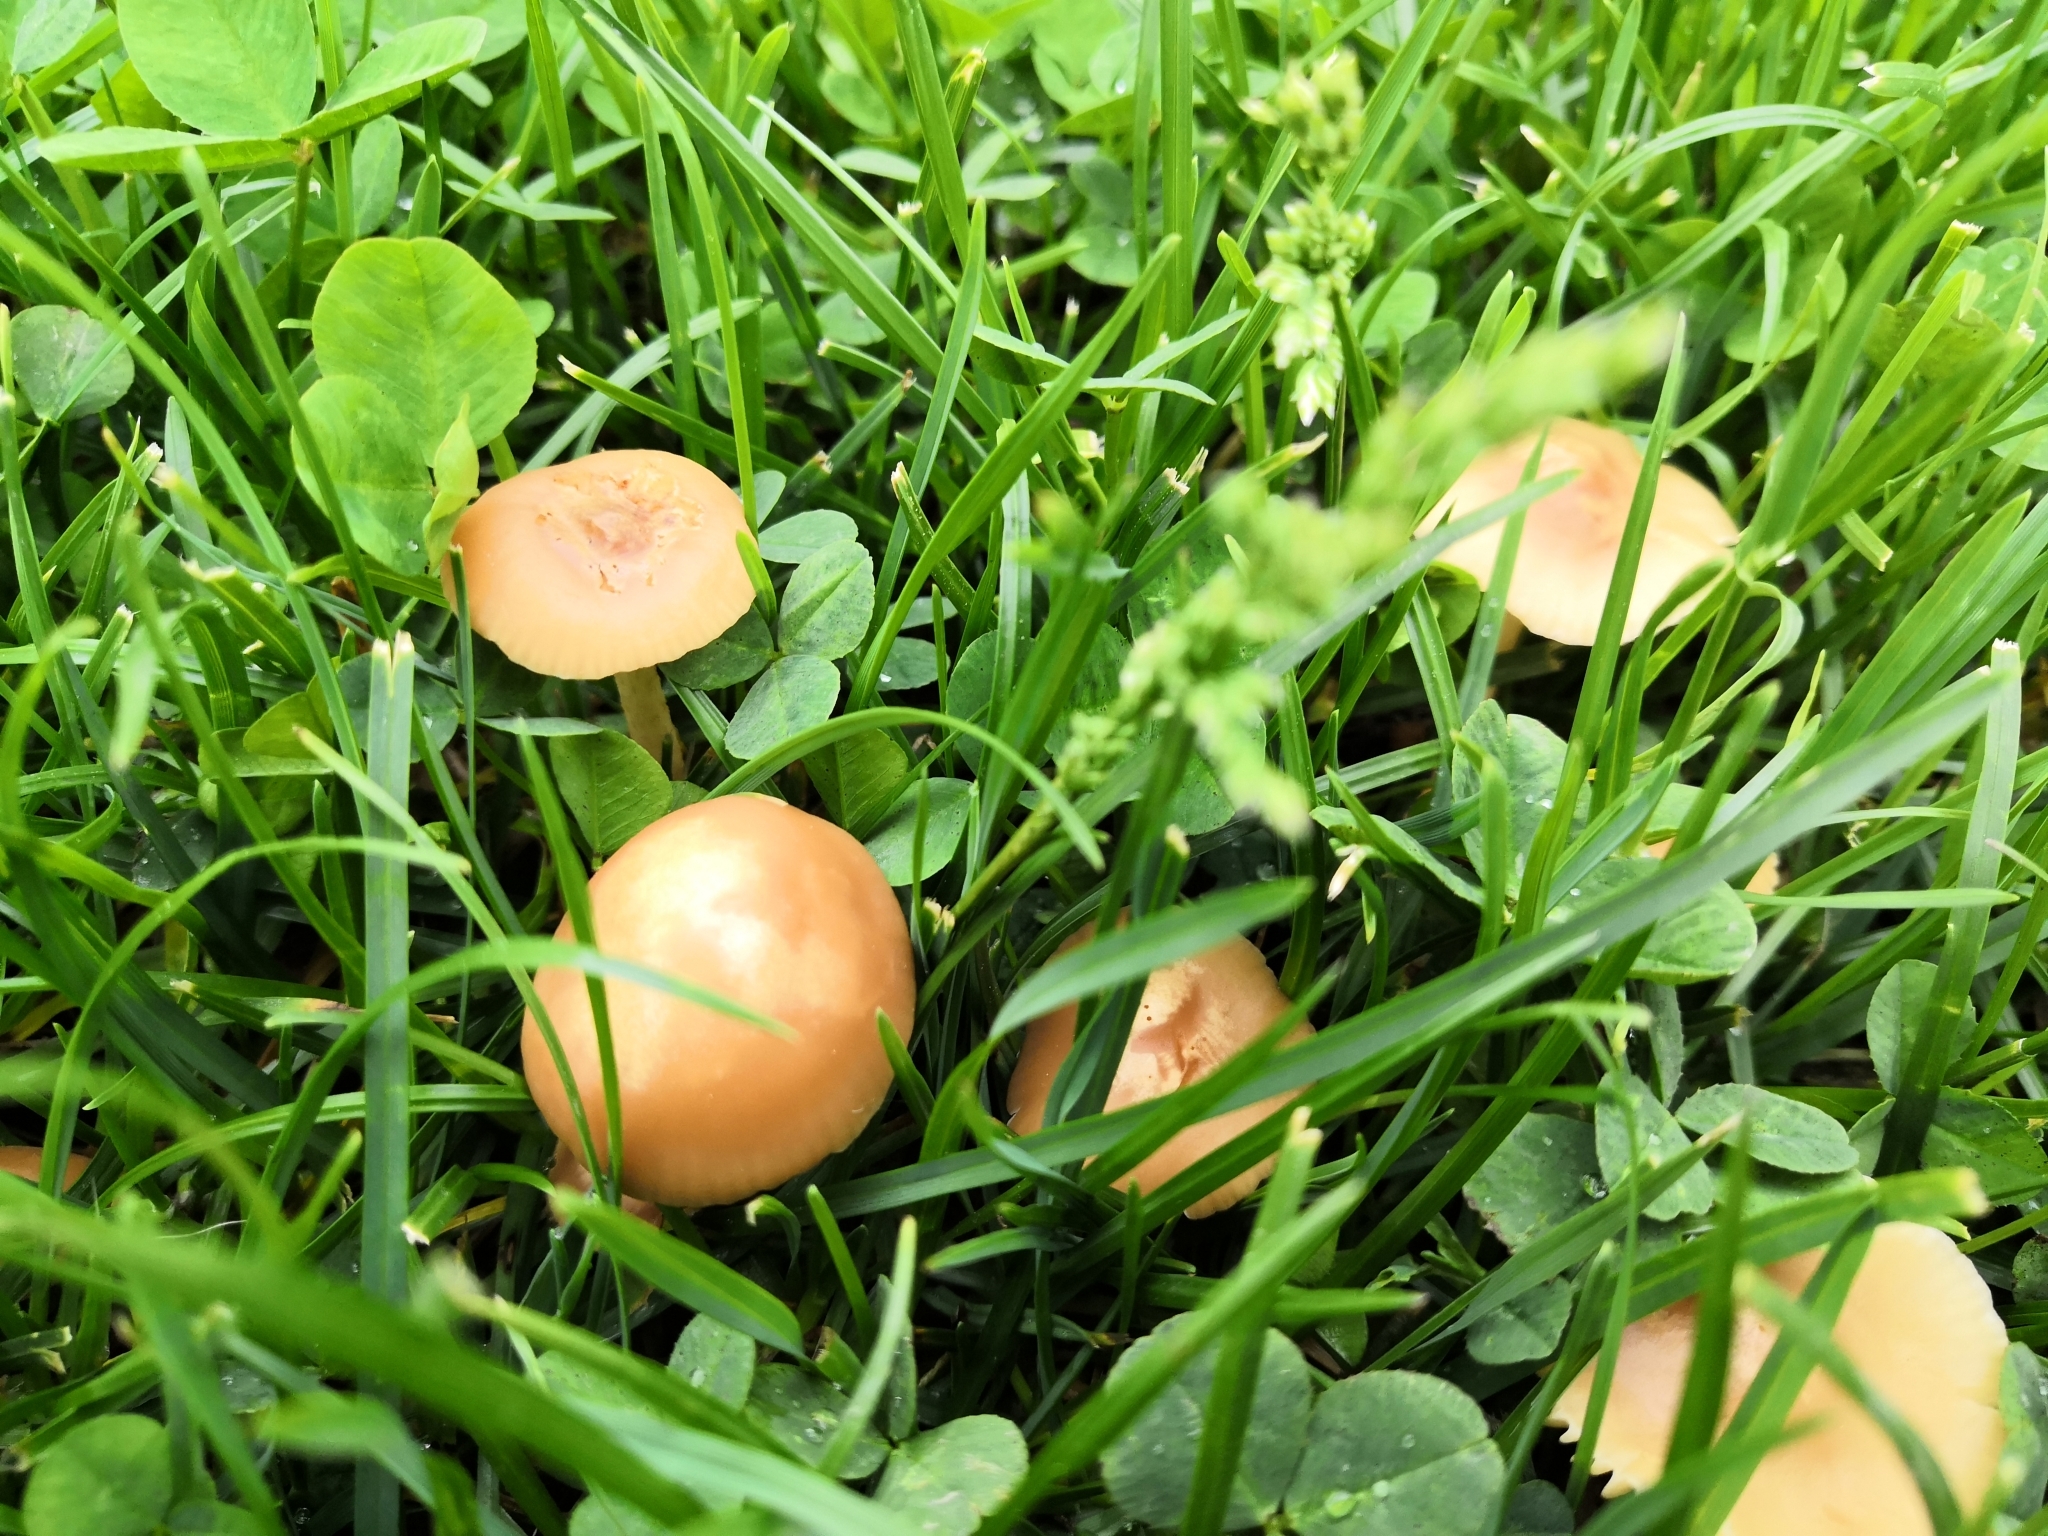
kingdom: Fungi
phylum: Basidiomycota
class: Agaricomycetes
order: Agaricales
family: Marasmiaceae
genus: Marasmius
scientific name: Marasmius oreades
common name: Fairy ring champignon
